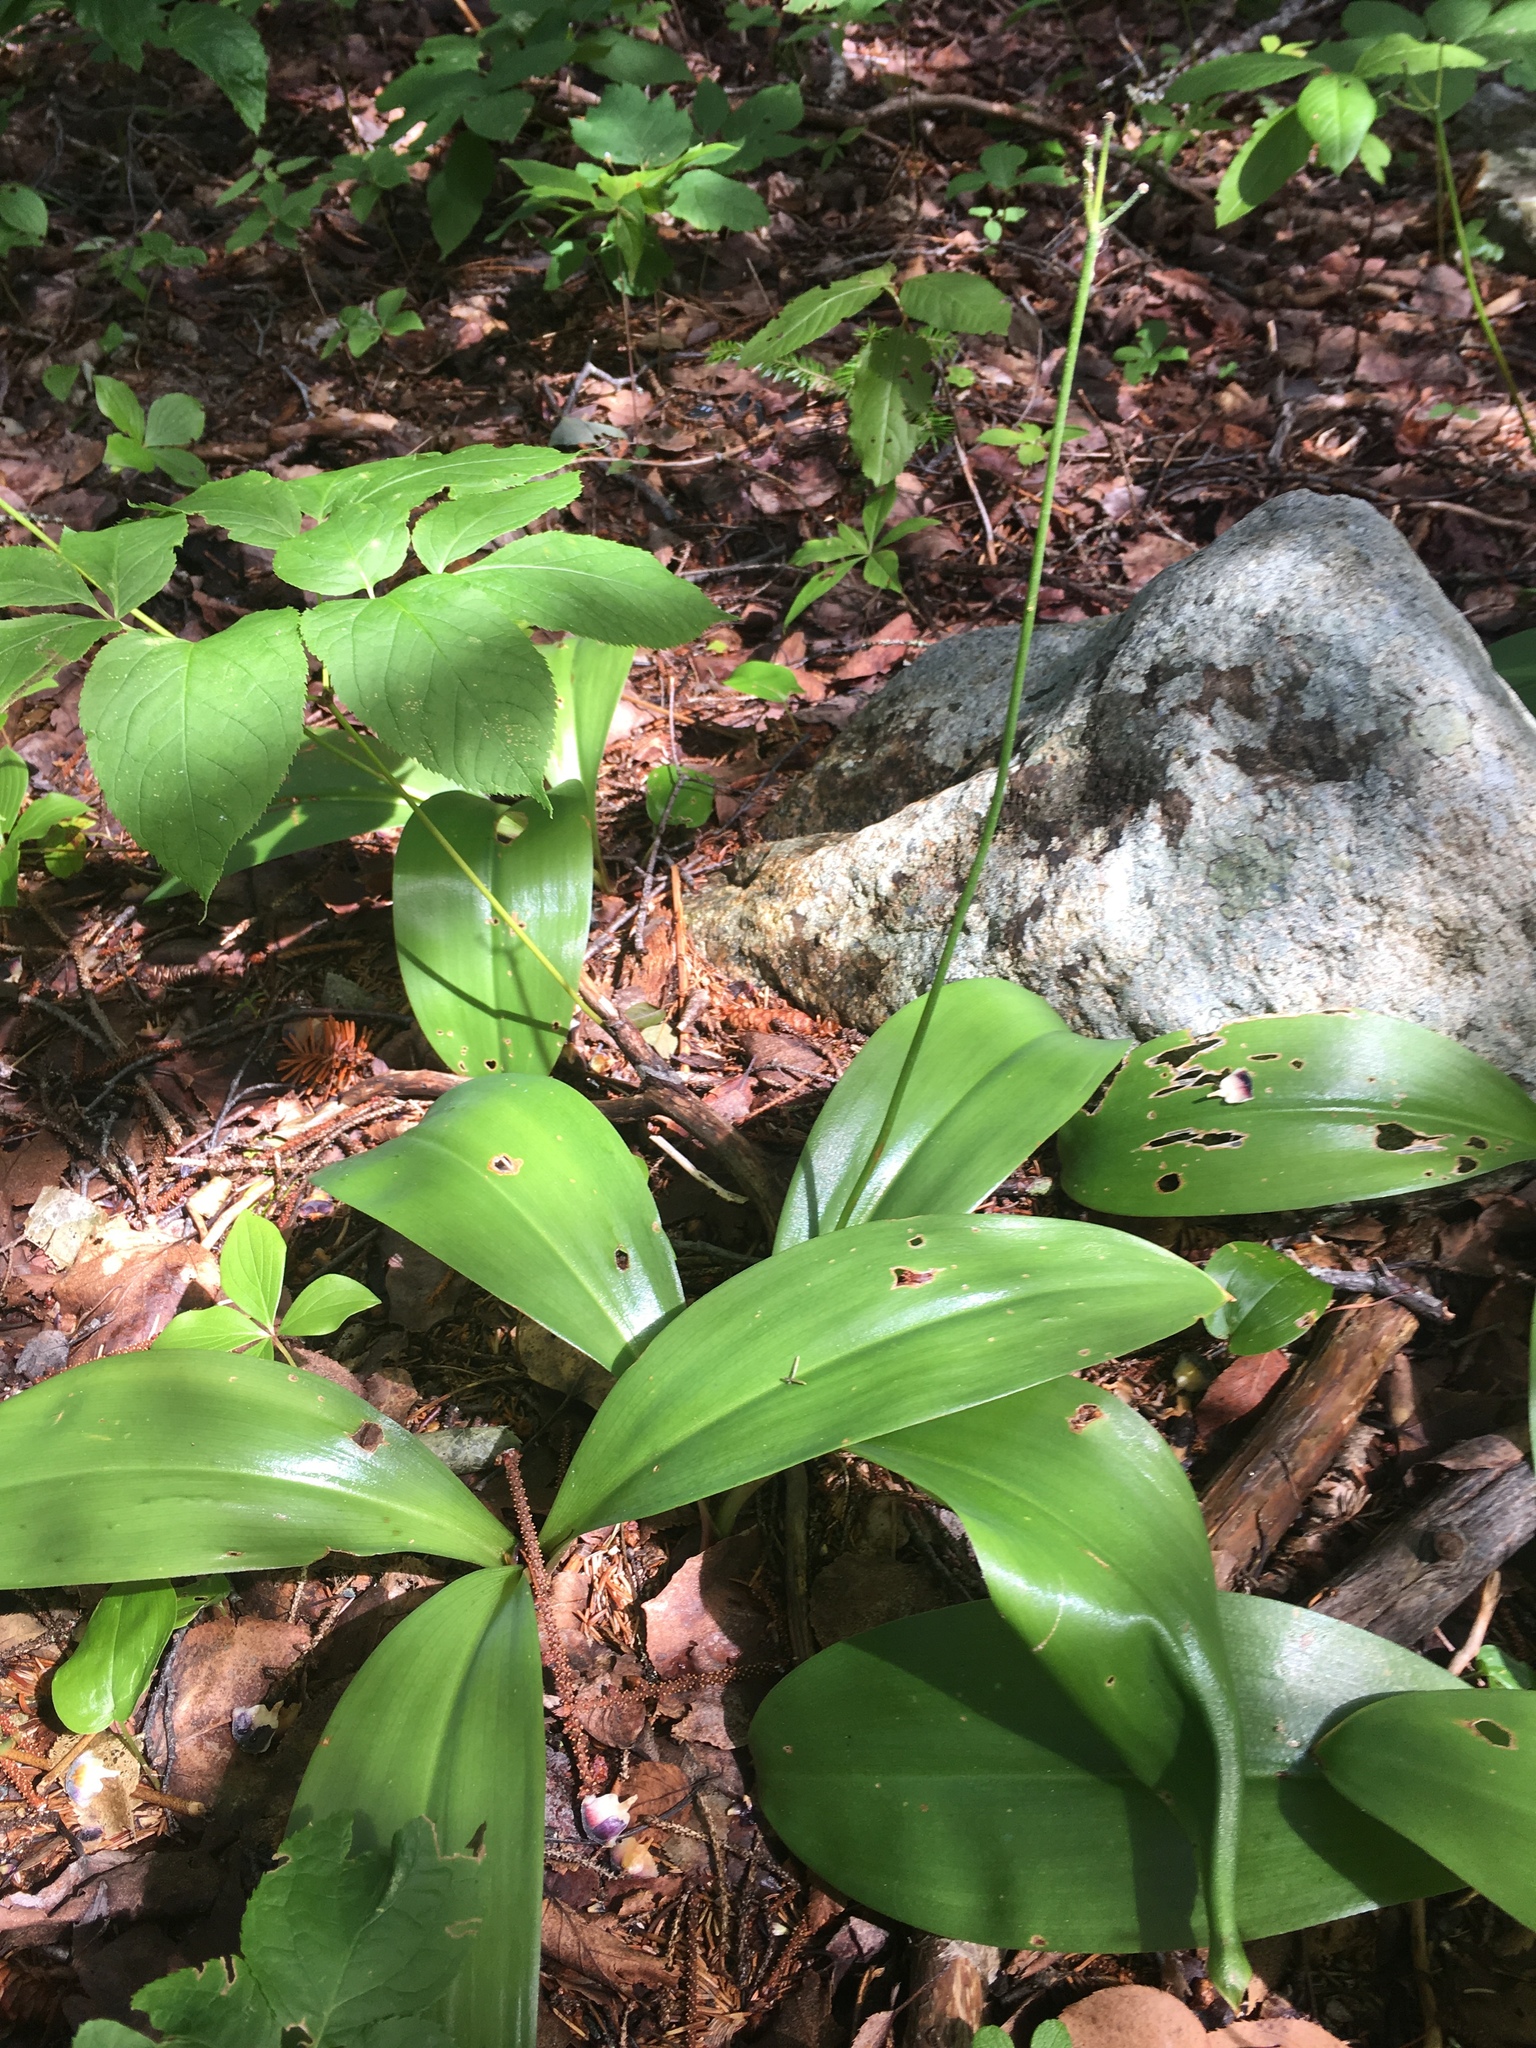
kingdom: Plantae
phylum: Tracheophyta
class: Liliopsida
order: Liliales
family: Liliaceae
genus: Clintonia
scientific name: Clintonia borealis
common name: Yellow clintonia
